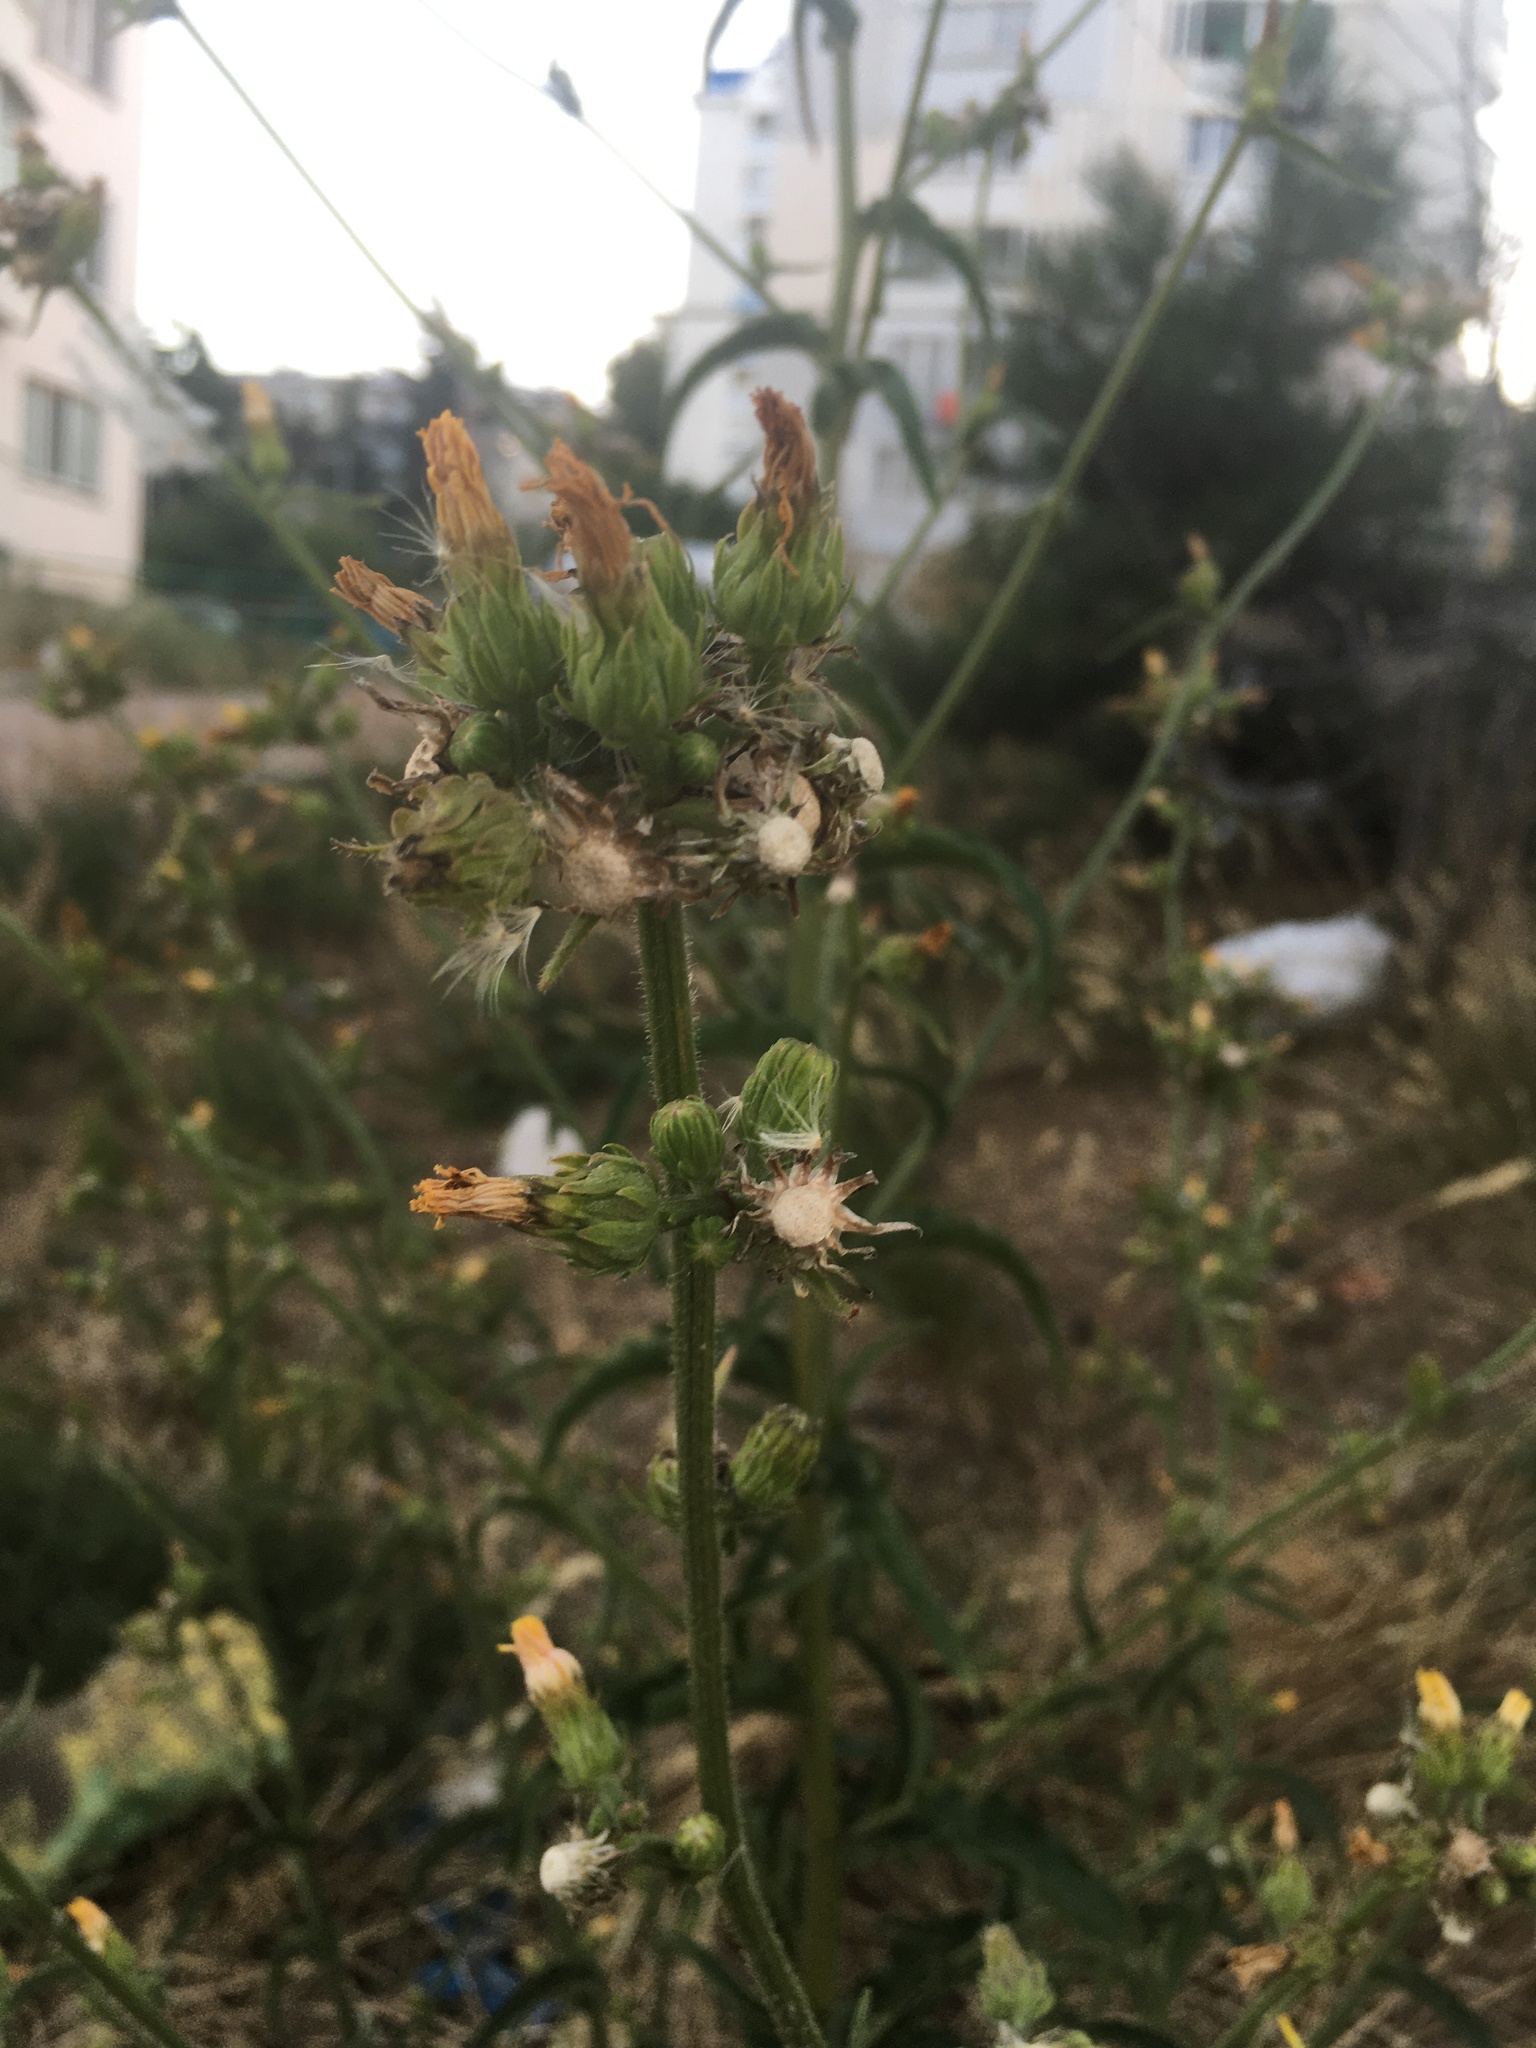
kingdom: Plantae
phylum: Tracheophyta
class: Magnoliopsida
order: Asterales
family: Asteraceae
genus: Picris
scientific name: Picris hieracioides
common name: Hawkweed oxtongue
